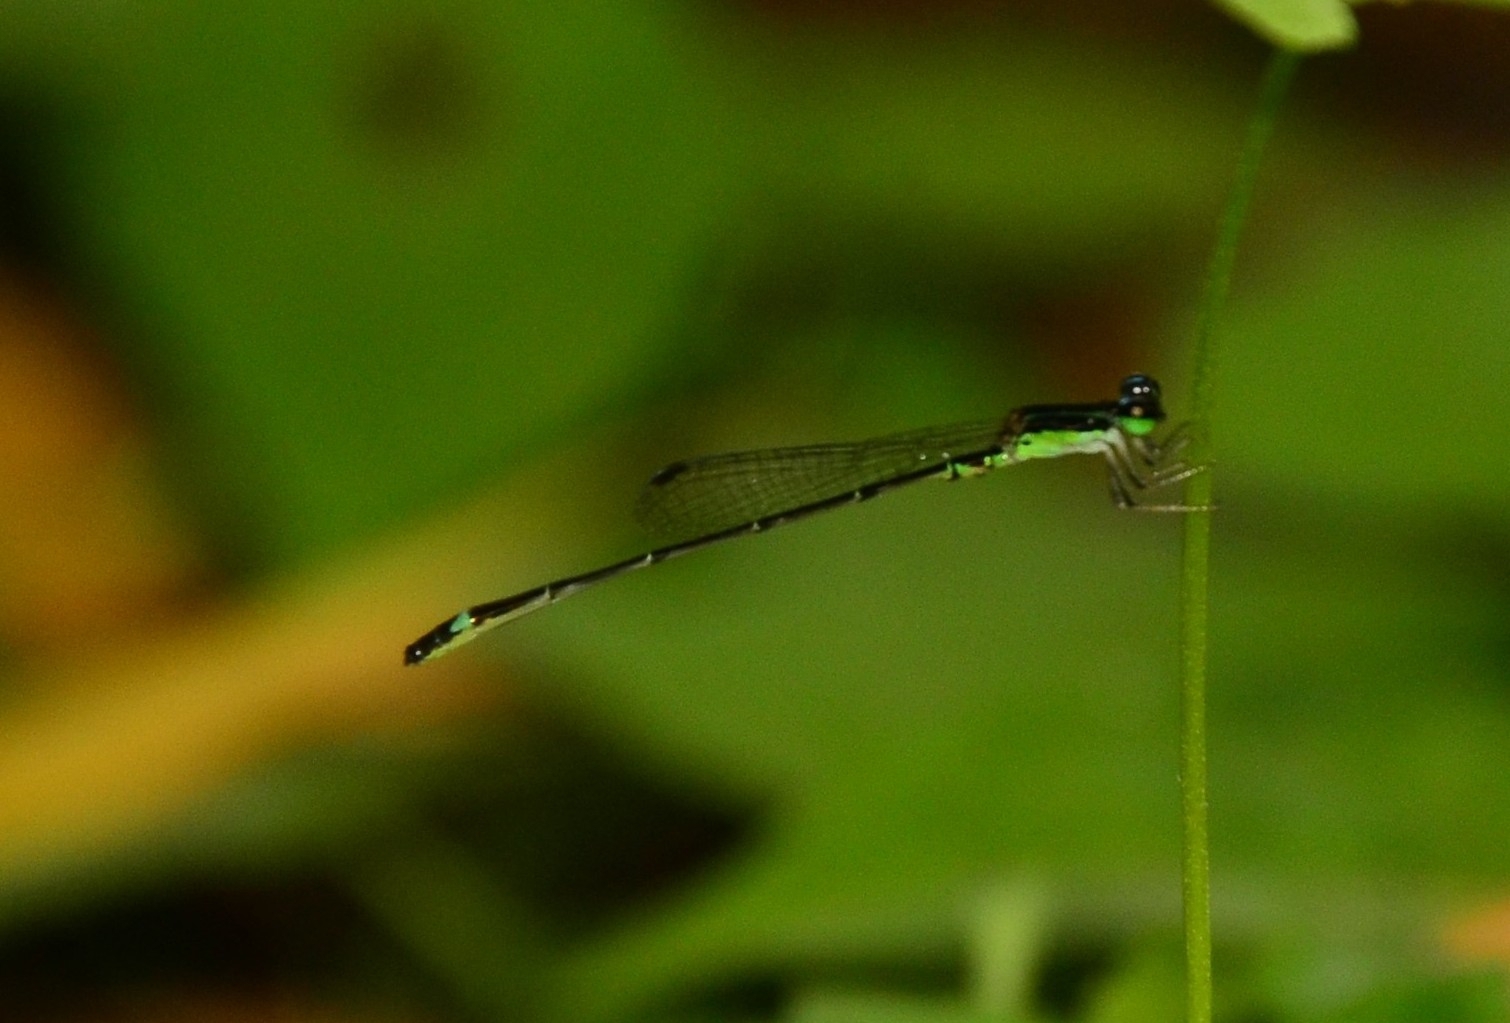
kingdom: Animalia
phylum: Arthropoda
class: Insecta
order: Odonata
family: Coenagrionidae
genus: Mortonagrion
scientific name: Mortonagrion varralli
